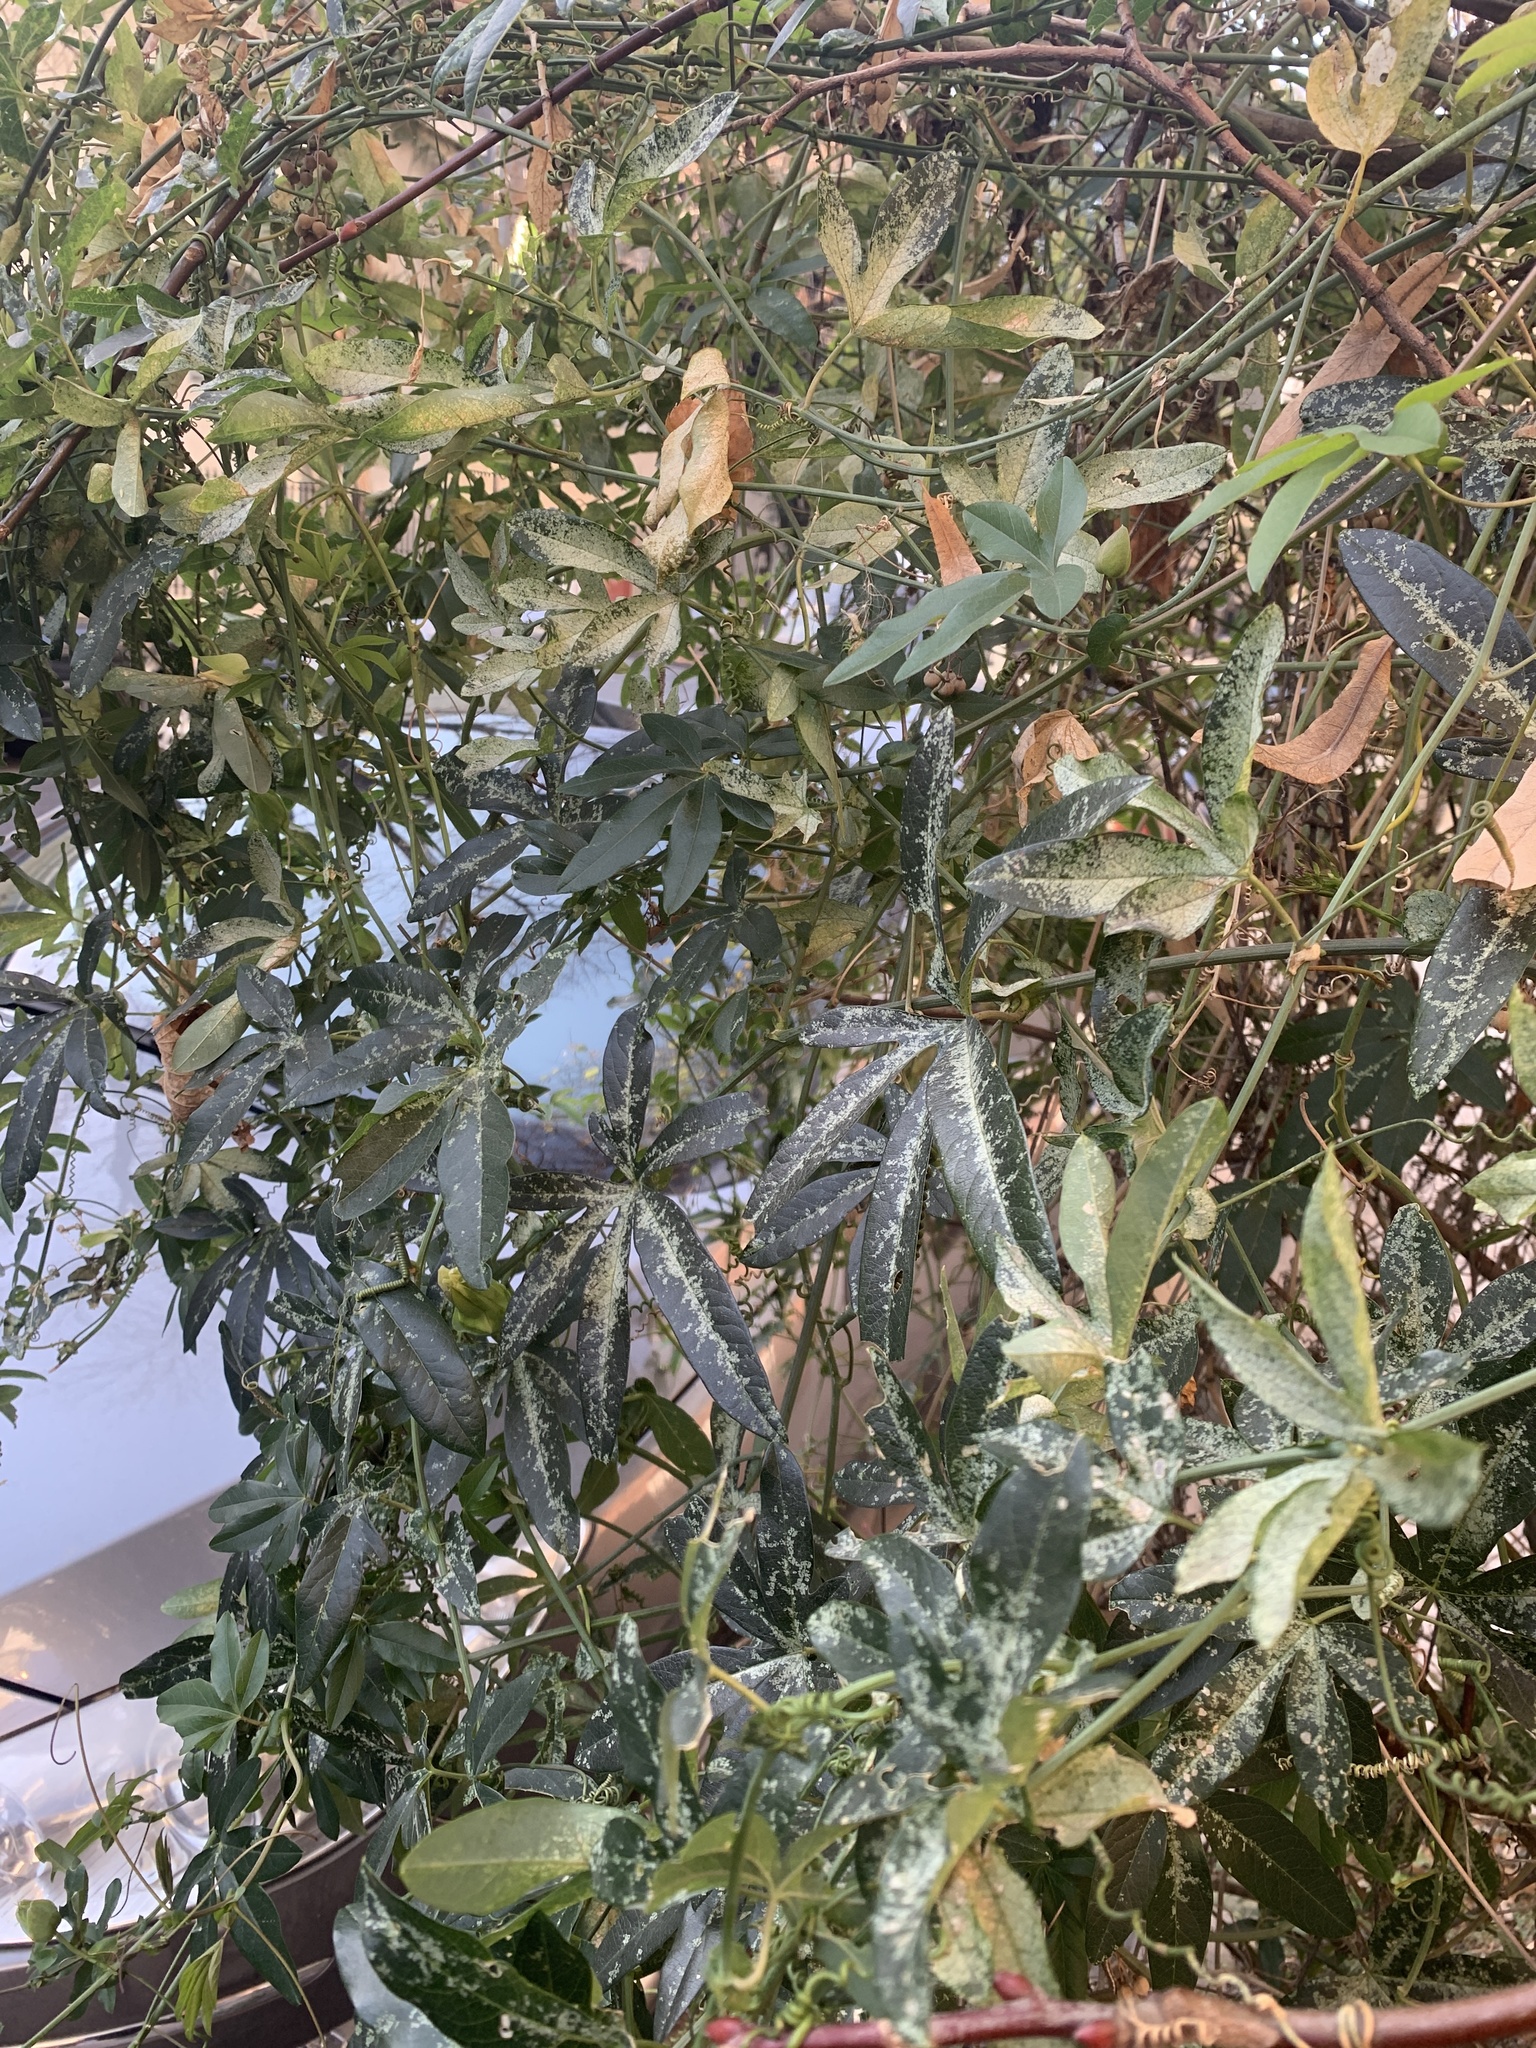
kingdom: Plantae
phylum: Tracheophyta
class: Magnoliopsida
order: Malpighiales
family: Passifloraceae
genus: Passiflora
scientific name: Passiflora caerulea
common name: Blue passionflower
